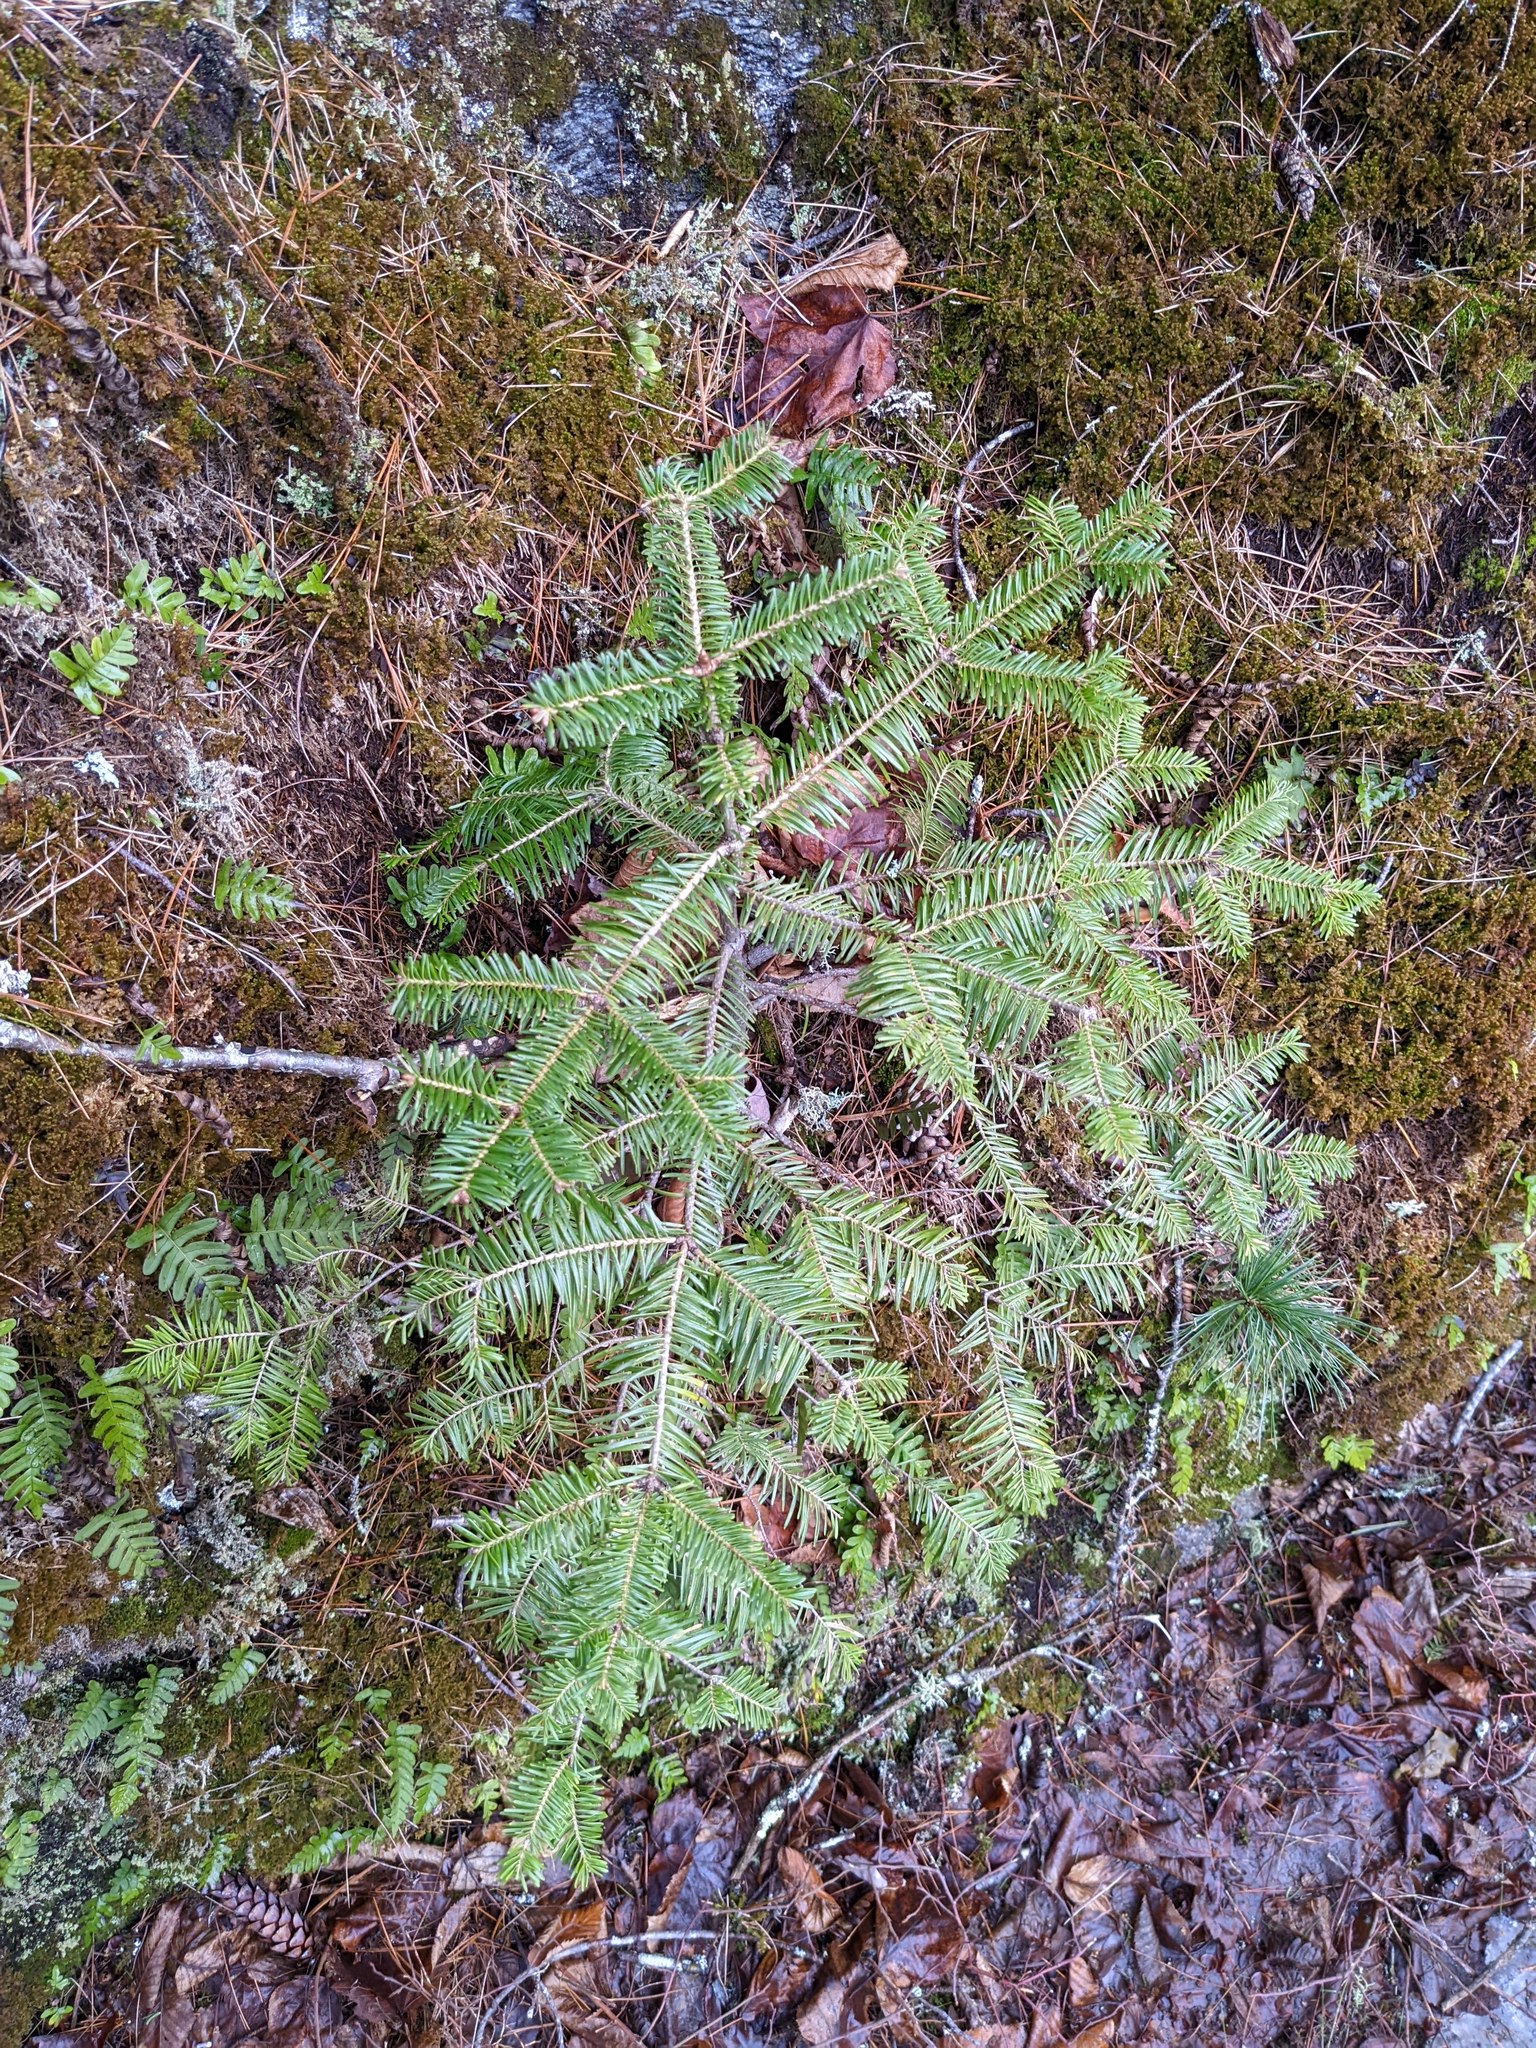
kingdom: Plantae
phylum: Tracheophyta
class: Pinopsida
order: Pinales
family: Pinaceae
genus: Abies
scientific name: Abies balsamea
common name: Balsam fir
